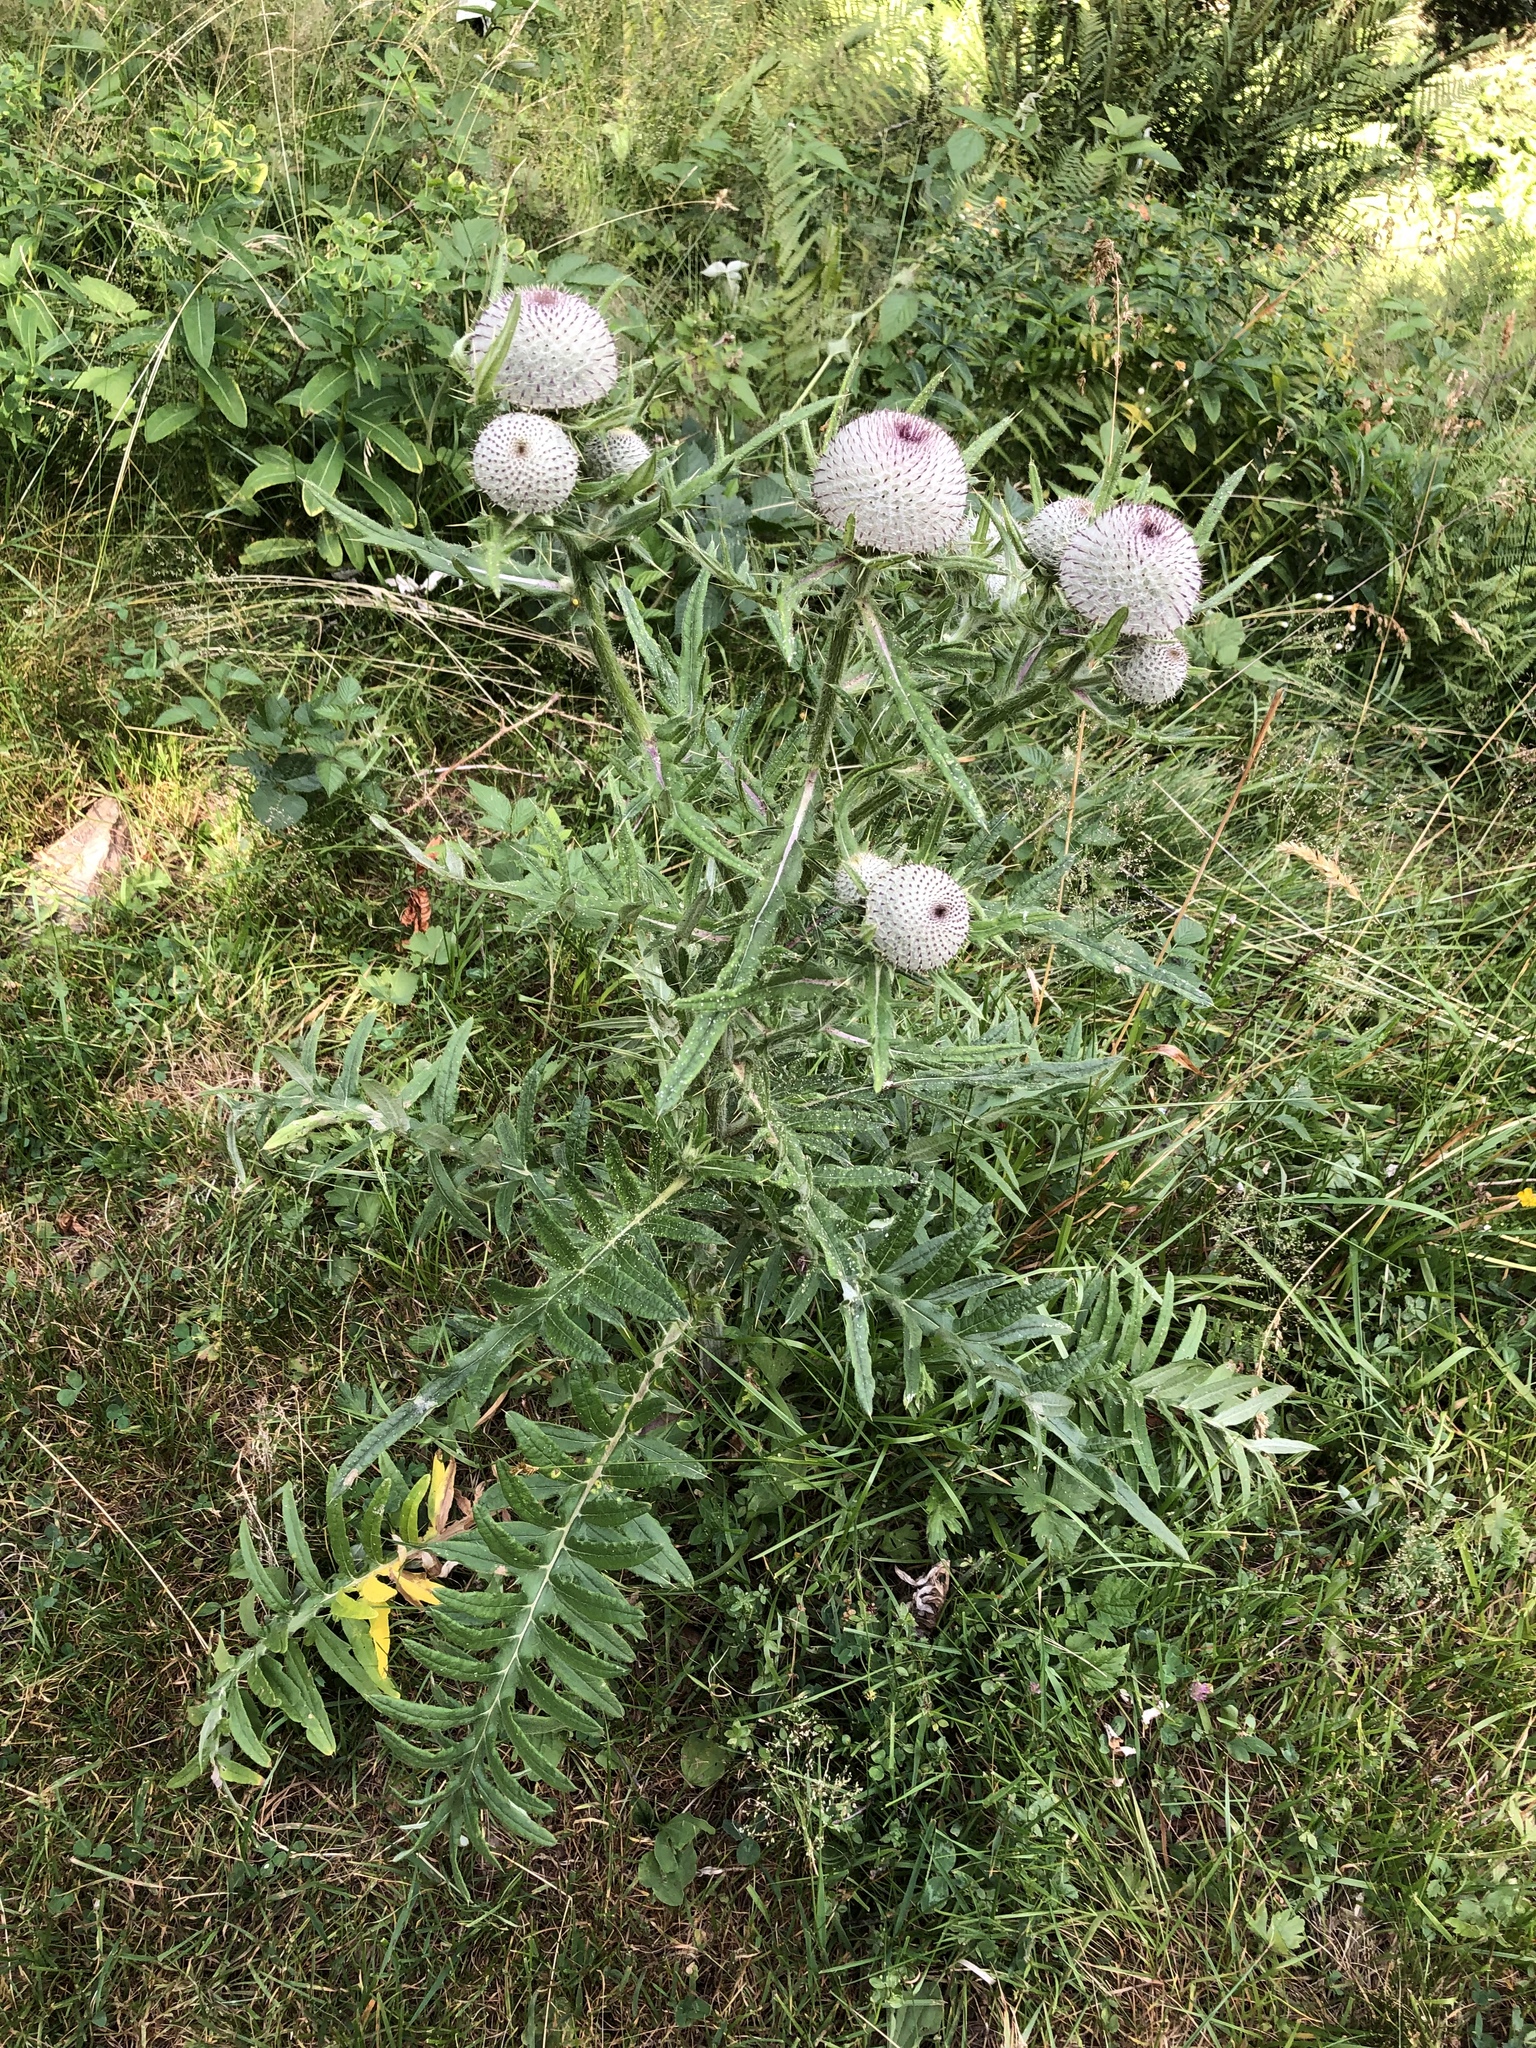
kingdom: Plantae
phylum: Tracheophyta
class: Magnoliopsida
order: Asterales
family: Asteraceae
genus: Lophiolepis
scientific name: Lophiolepis eriophora
